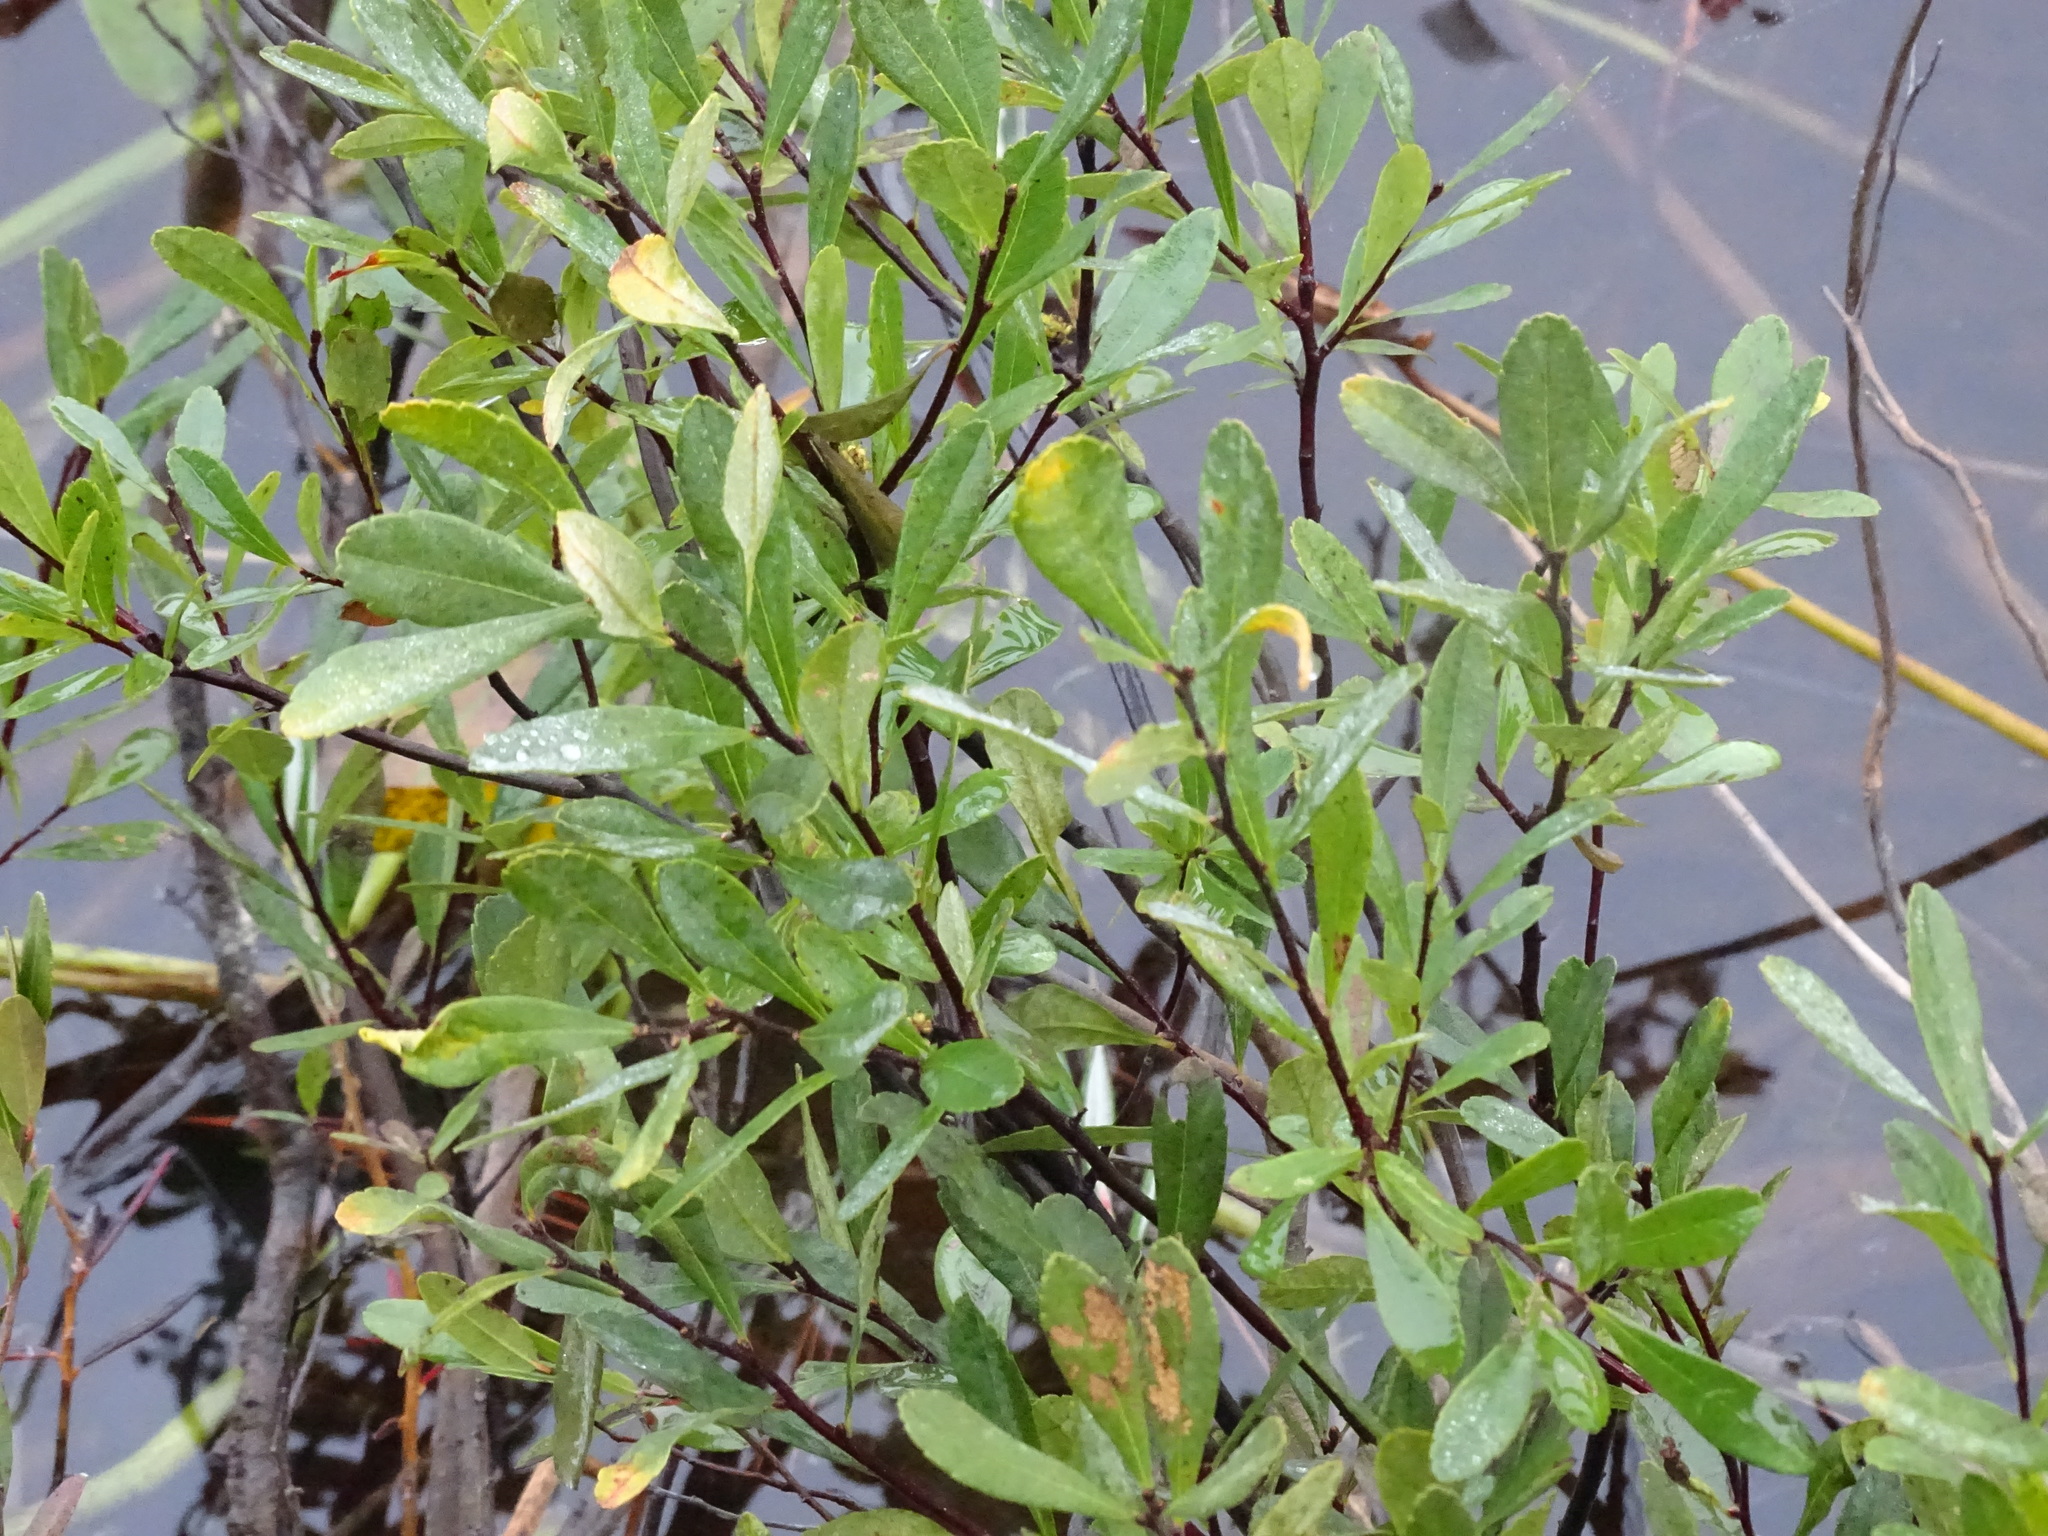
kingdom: Plantae
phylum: Tracheophyta
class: Magnoliopsida
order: Fagales
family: Myricaceae
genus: Myrica
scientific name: Myrica gale
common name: Sweet gale
